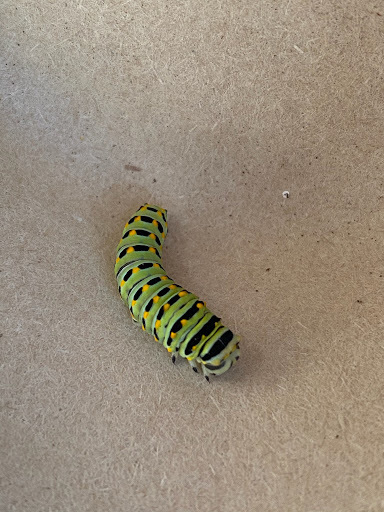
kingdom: Animalia
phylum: Arthropoda
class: Insecta
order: Lepidoptera
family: Papilionidae
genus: Papilio
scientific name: Papilio zelicaon
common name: Anise swallowtail
